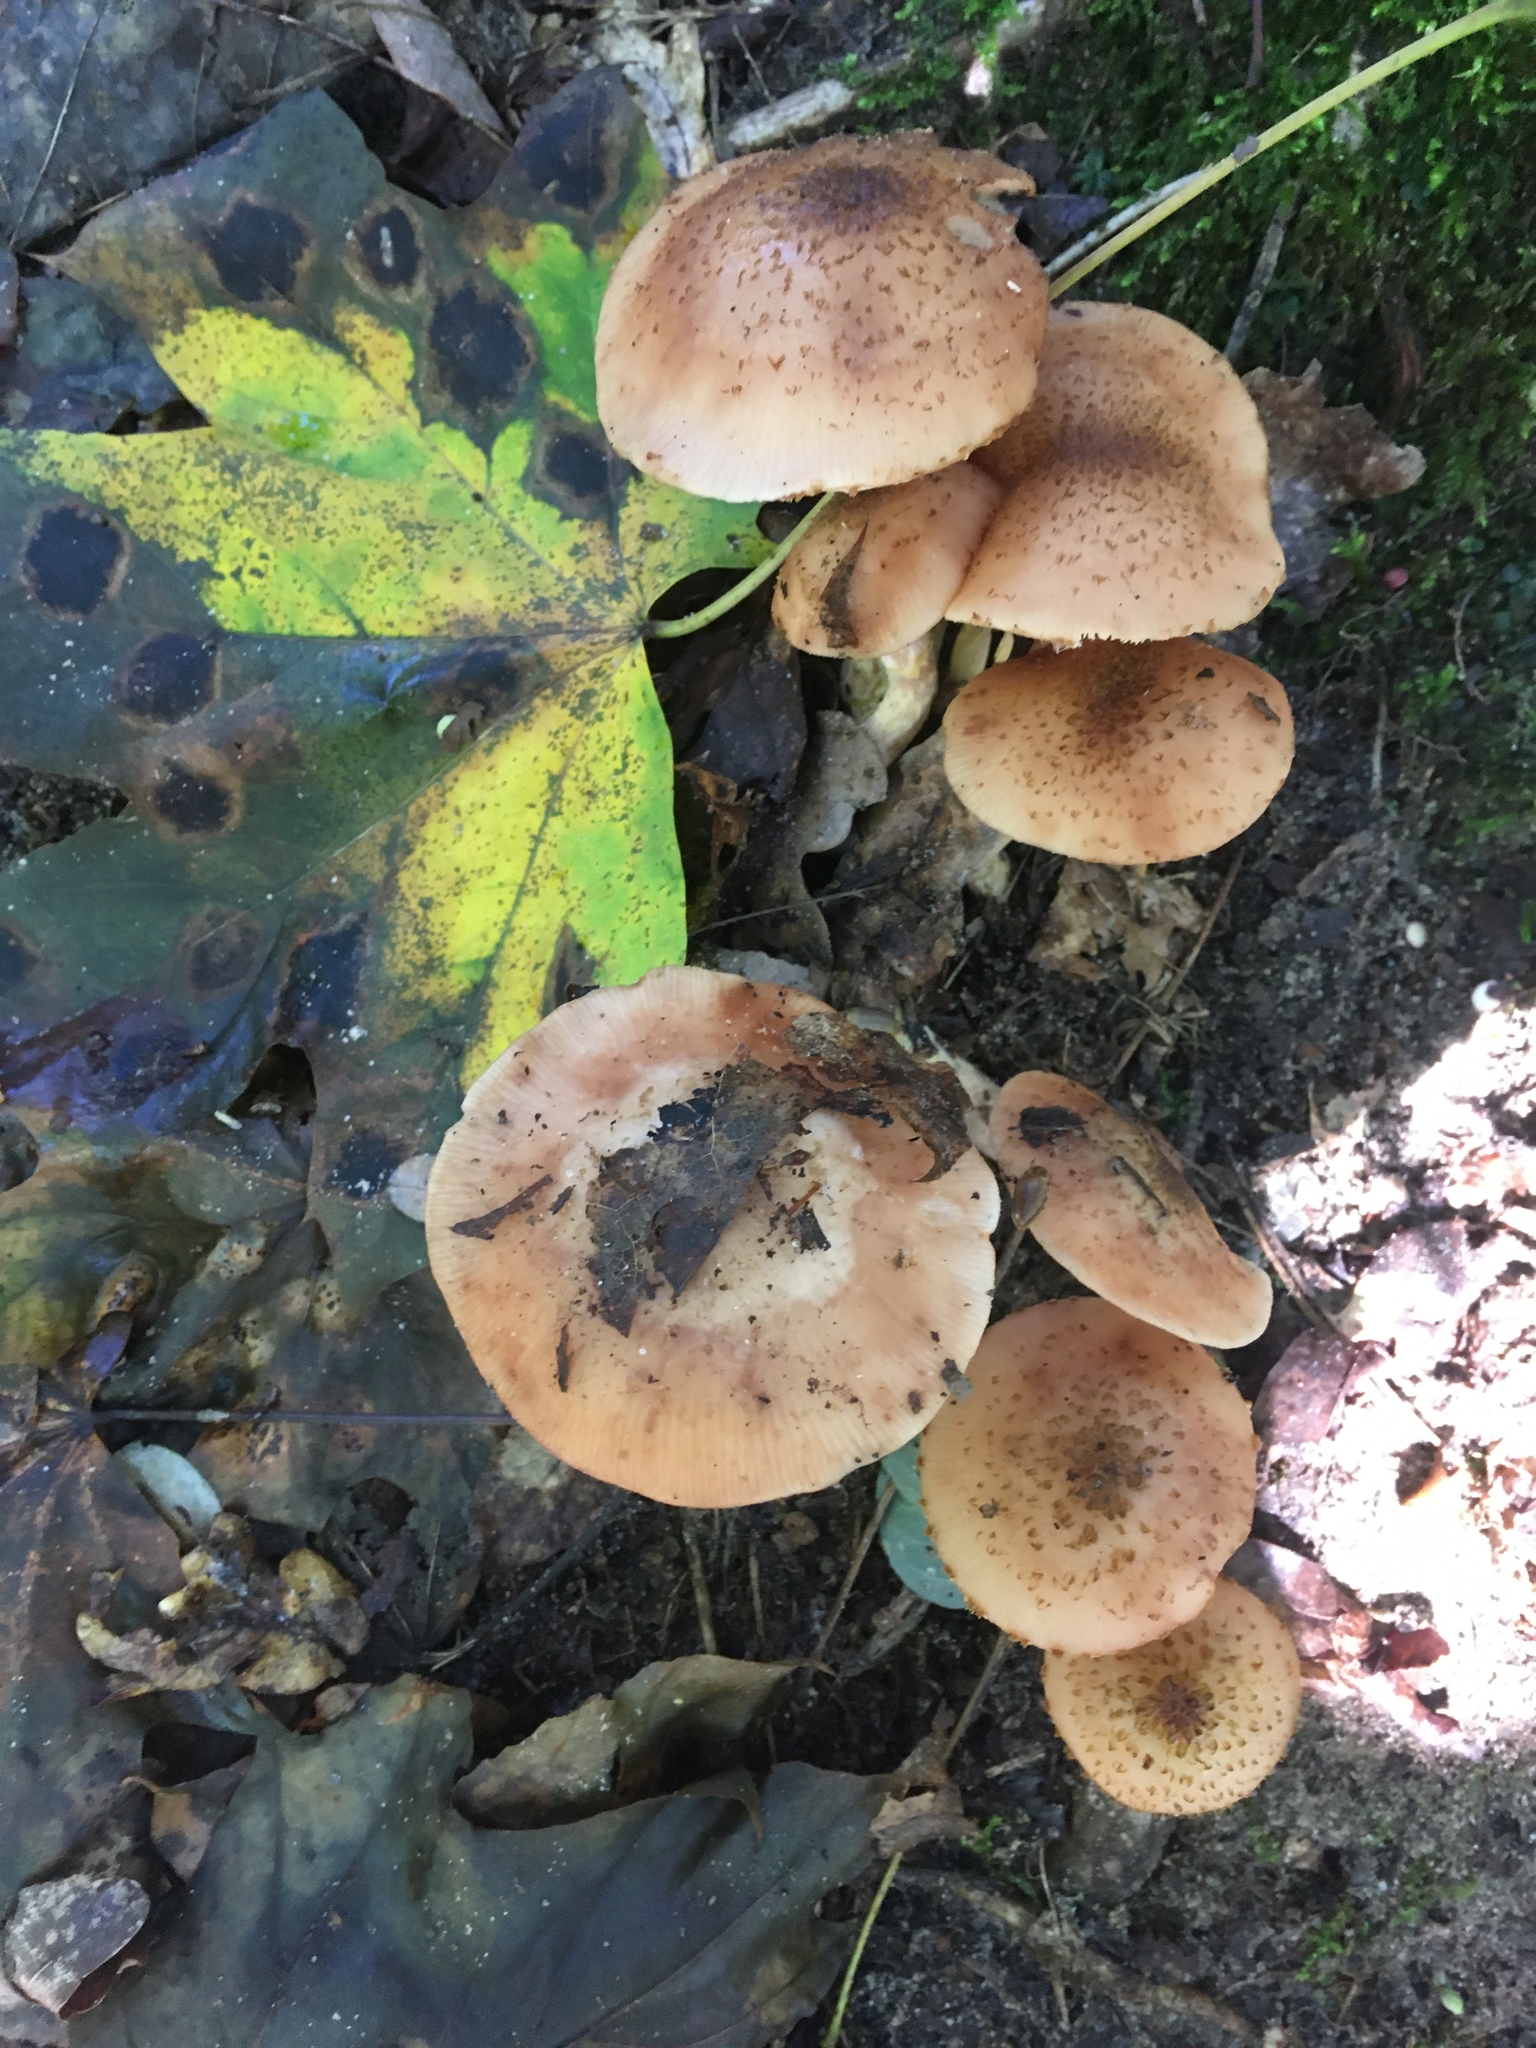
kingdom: Fungi
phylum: Basidiomycota
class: Agaricomycetes
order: Agaricales
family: Physalacriaceae
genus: Armillaria
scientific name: Armillaria ostoyae
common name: Dark honey fungus
